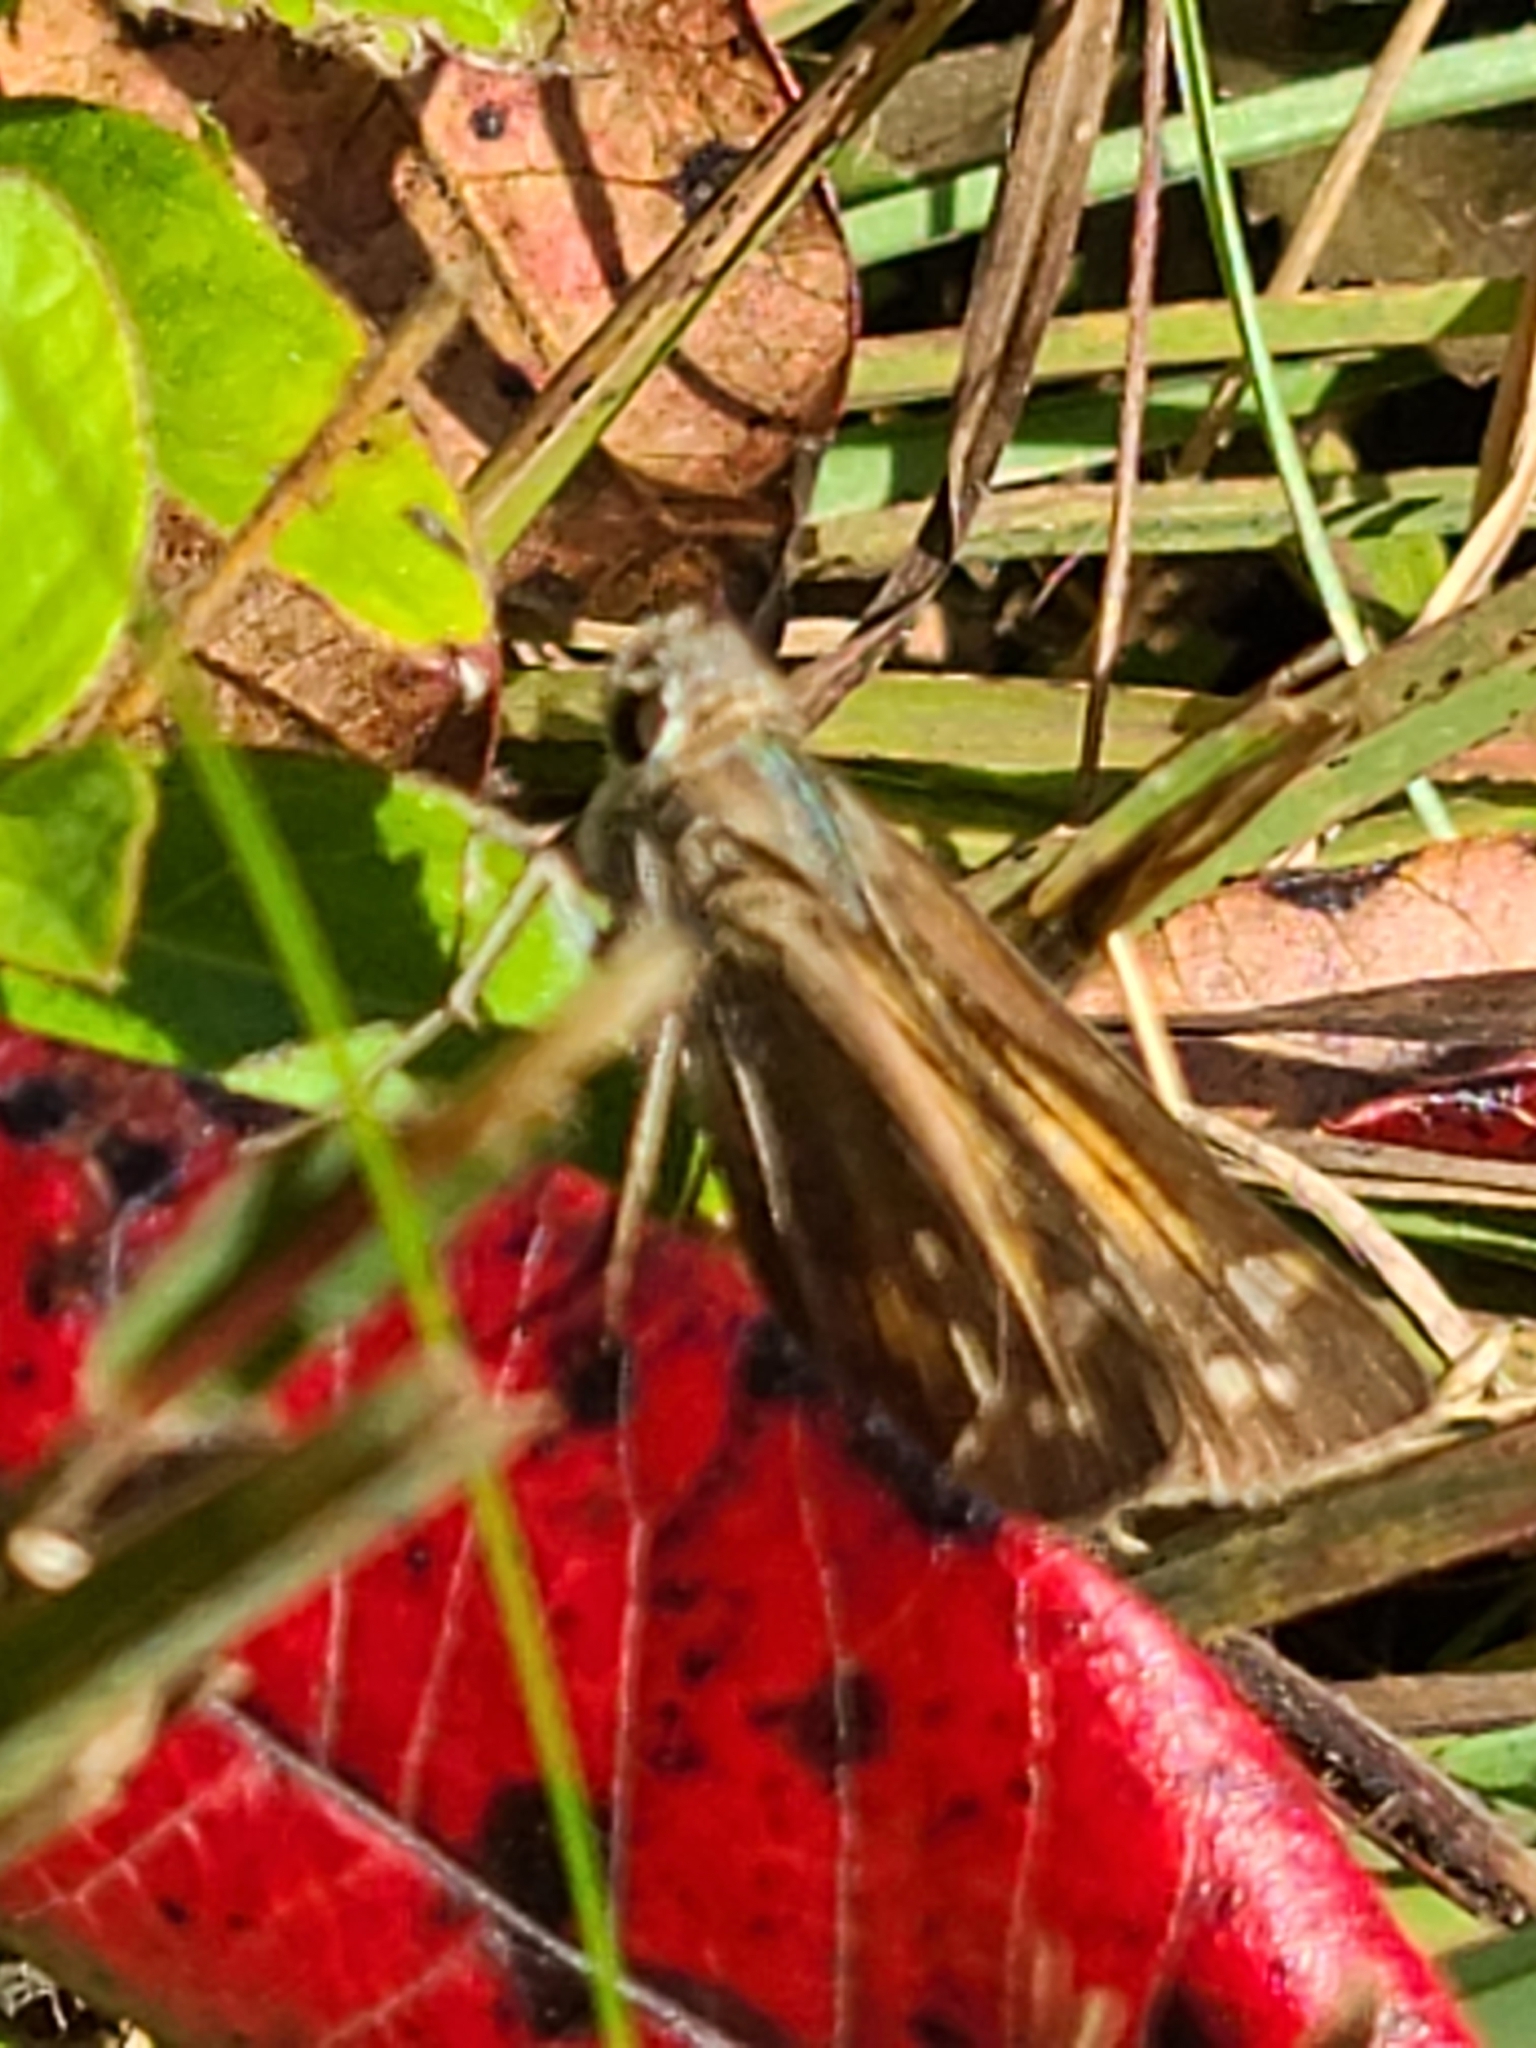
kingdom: Animalia
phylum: Arthropoda
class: Insecta
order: Lepidoptera
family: Hesperiidae
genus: Atalopedes
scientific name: Atalopedes
